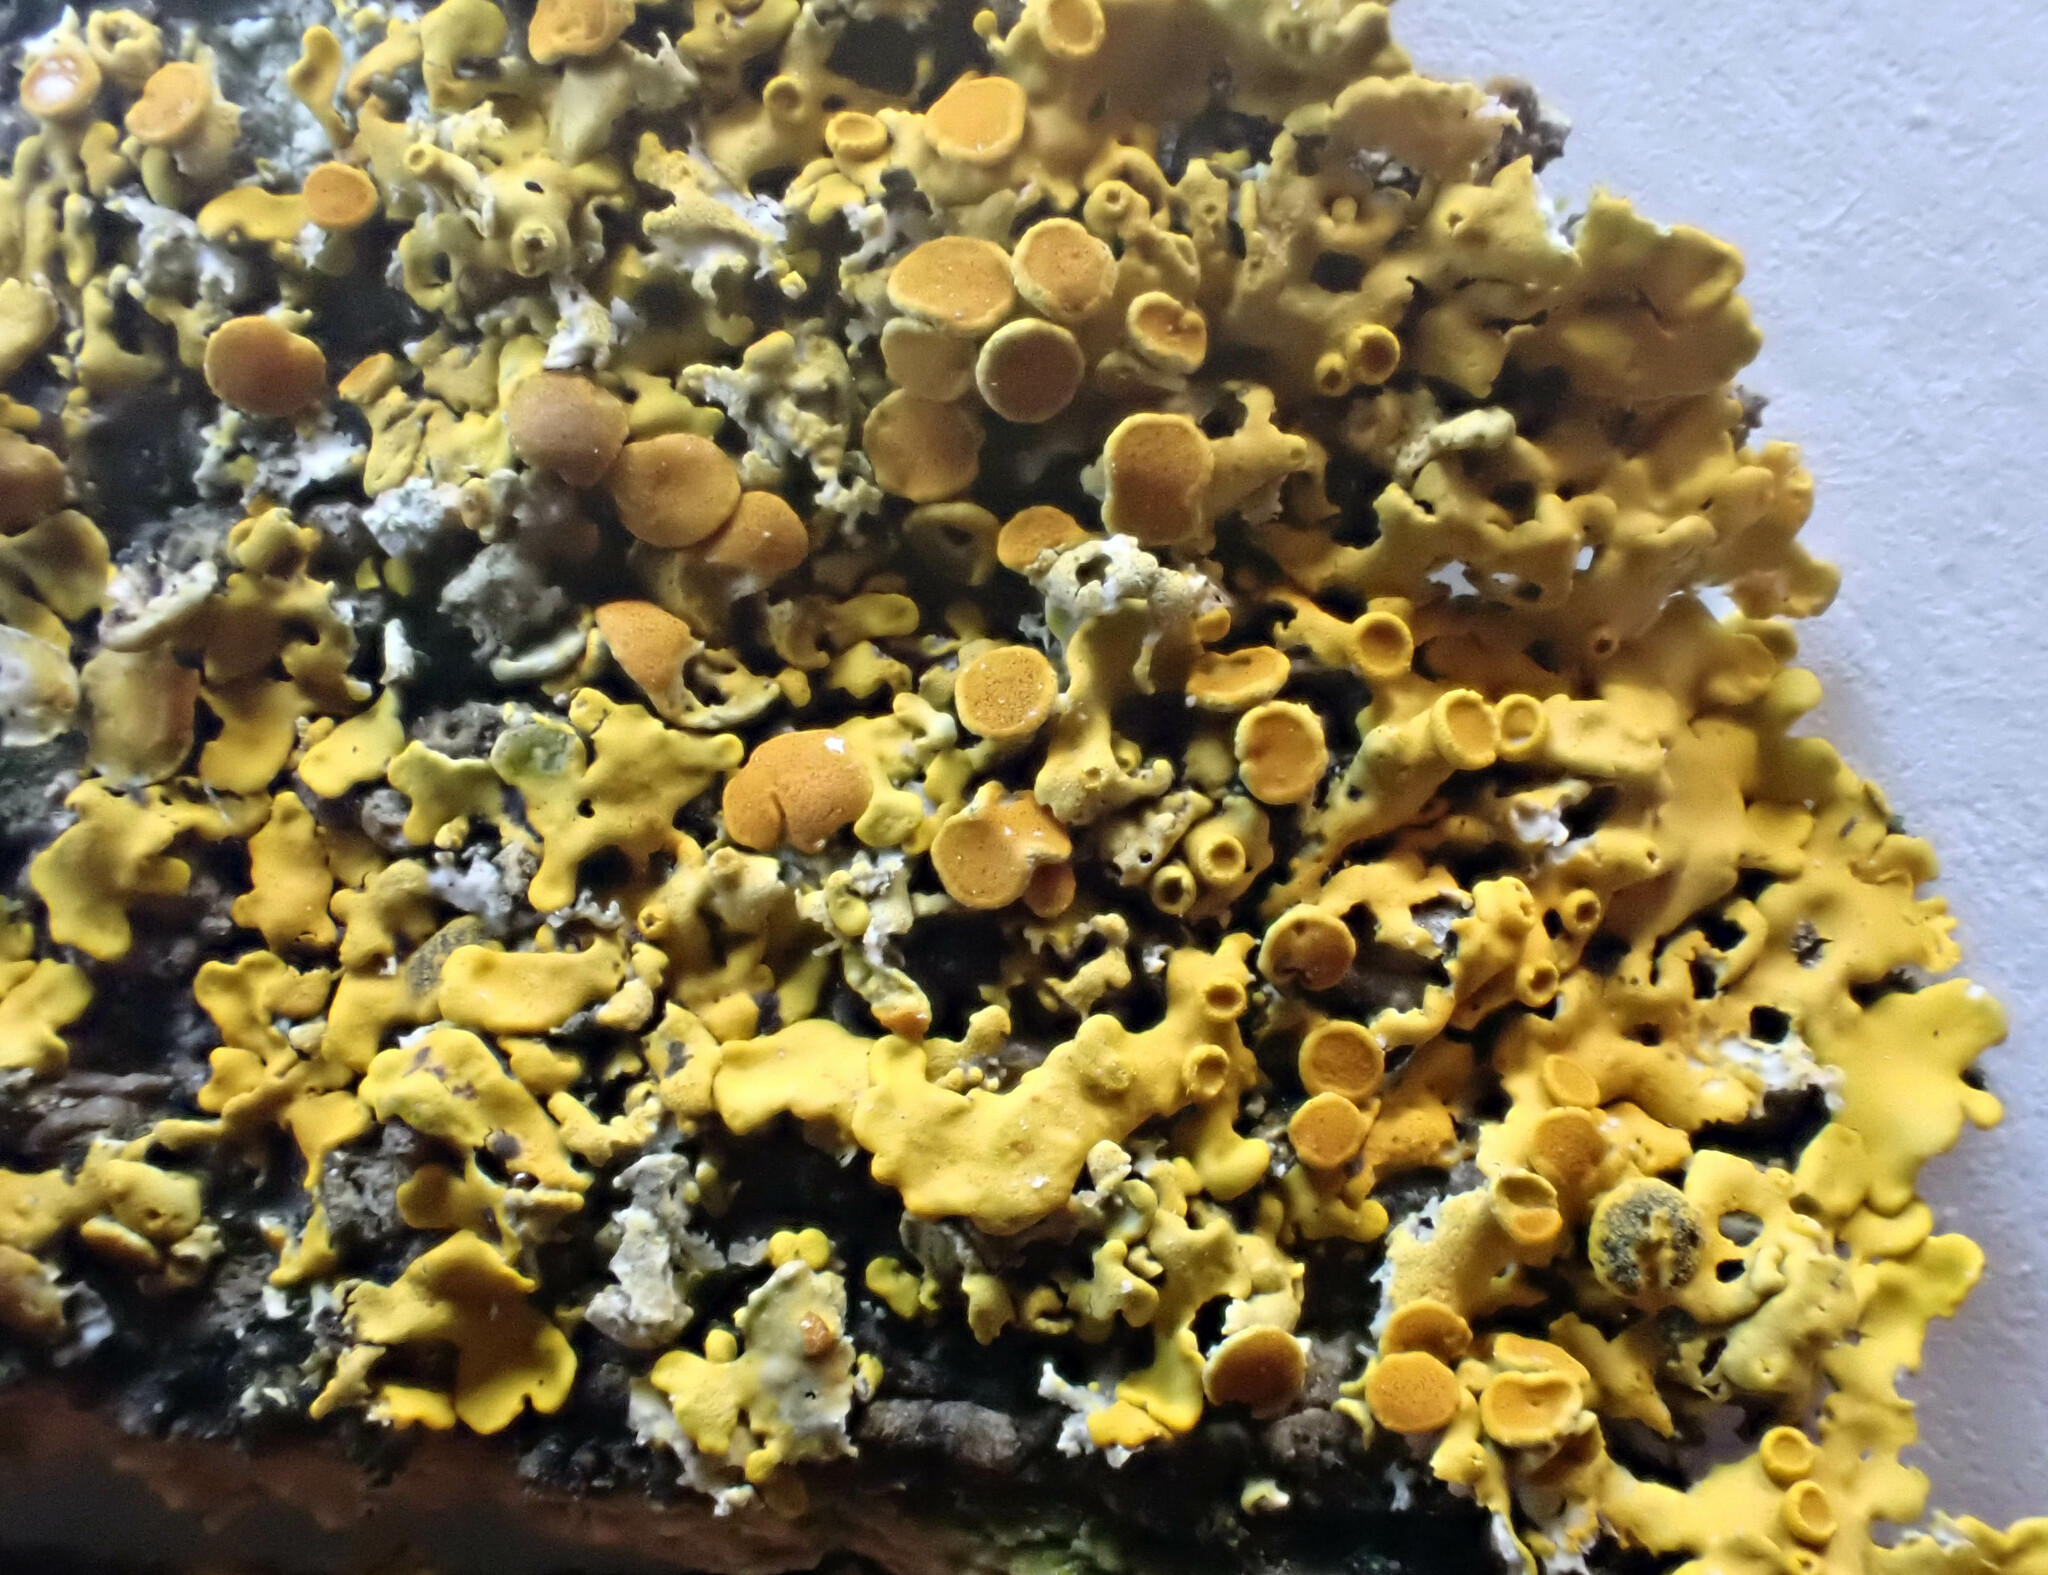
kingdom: Fungi
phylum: Ascomycota
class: Lecanoromycetes
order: Teloschistales
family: Teloschistaceae
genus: Xanthoria
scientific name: Xanthoria parietina
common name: Common orange lichen
